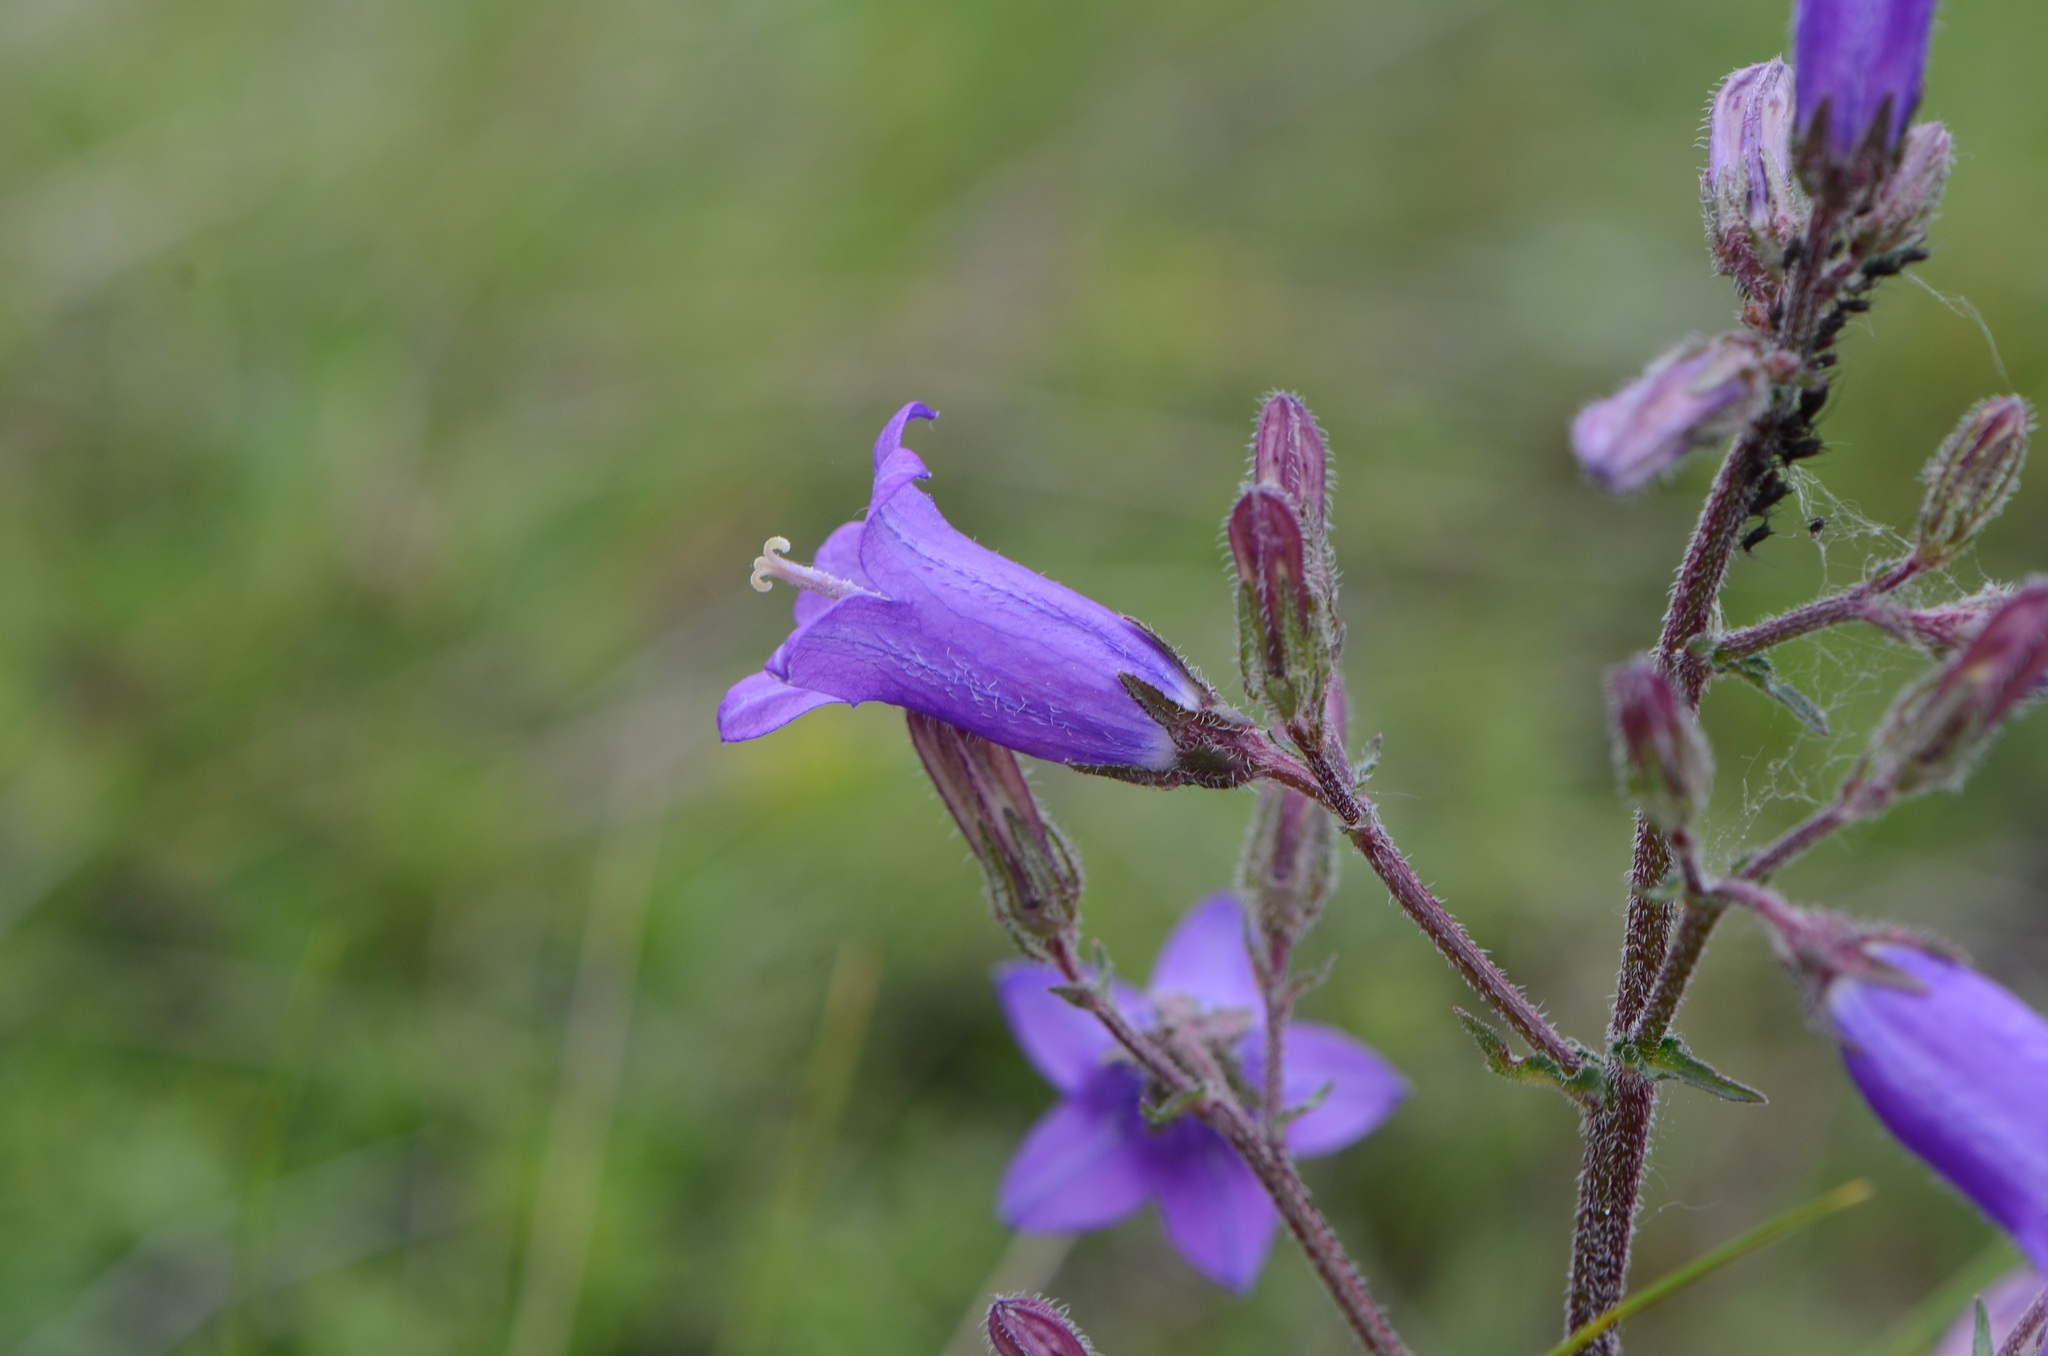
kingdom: Plantae
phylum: Tracheophyta
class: Magnoliopsida
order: Asterales
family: Campanulaceae
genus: Campanula
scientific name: Campanula sibirica
